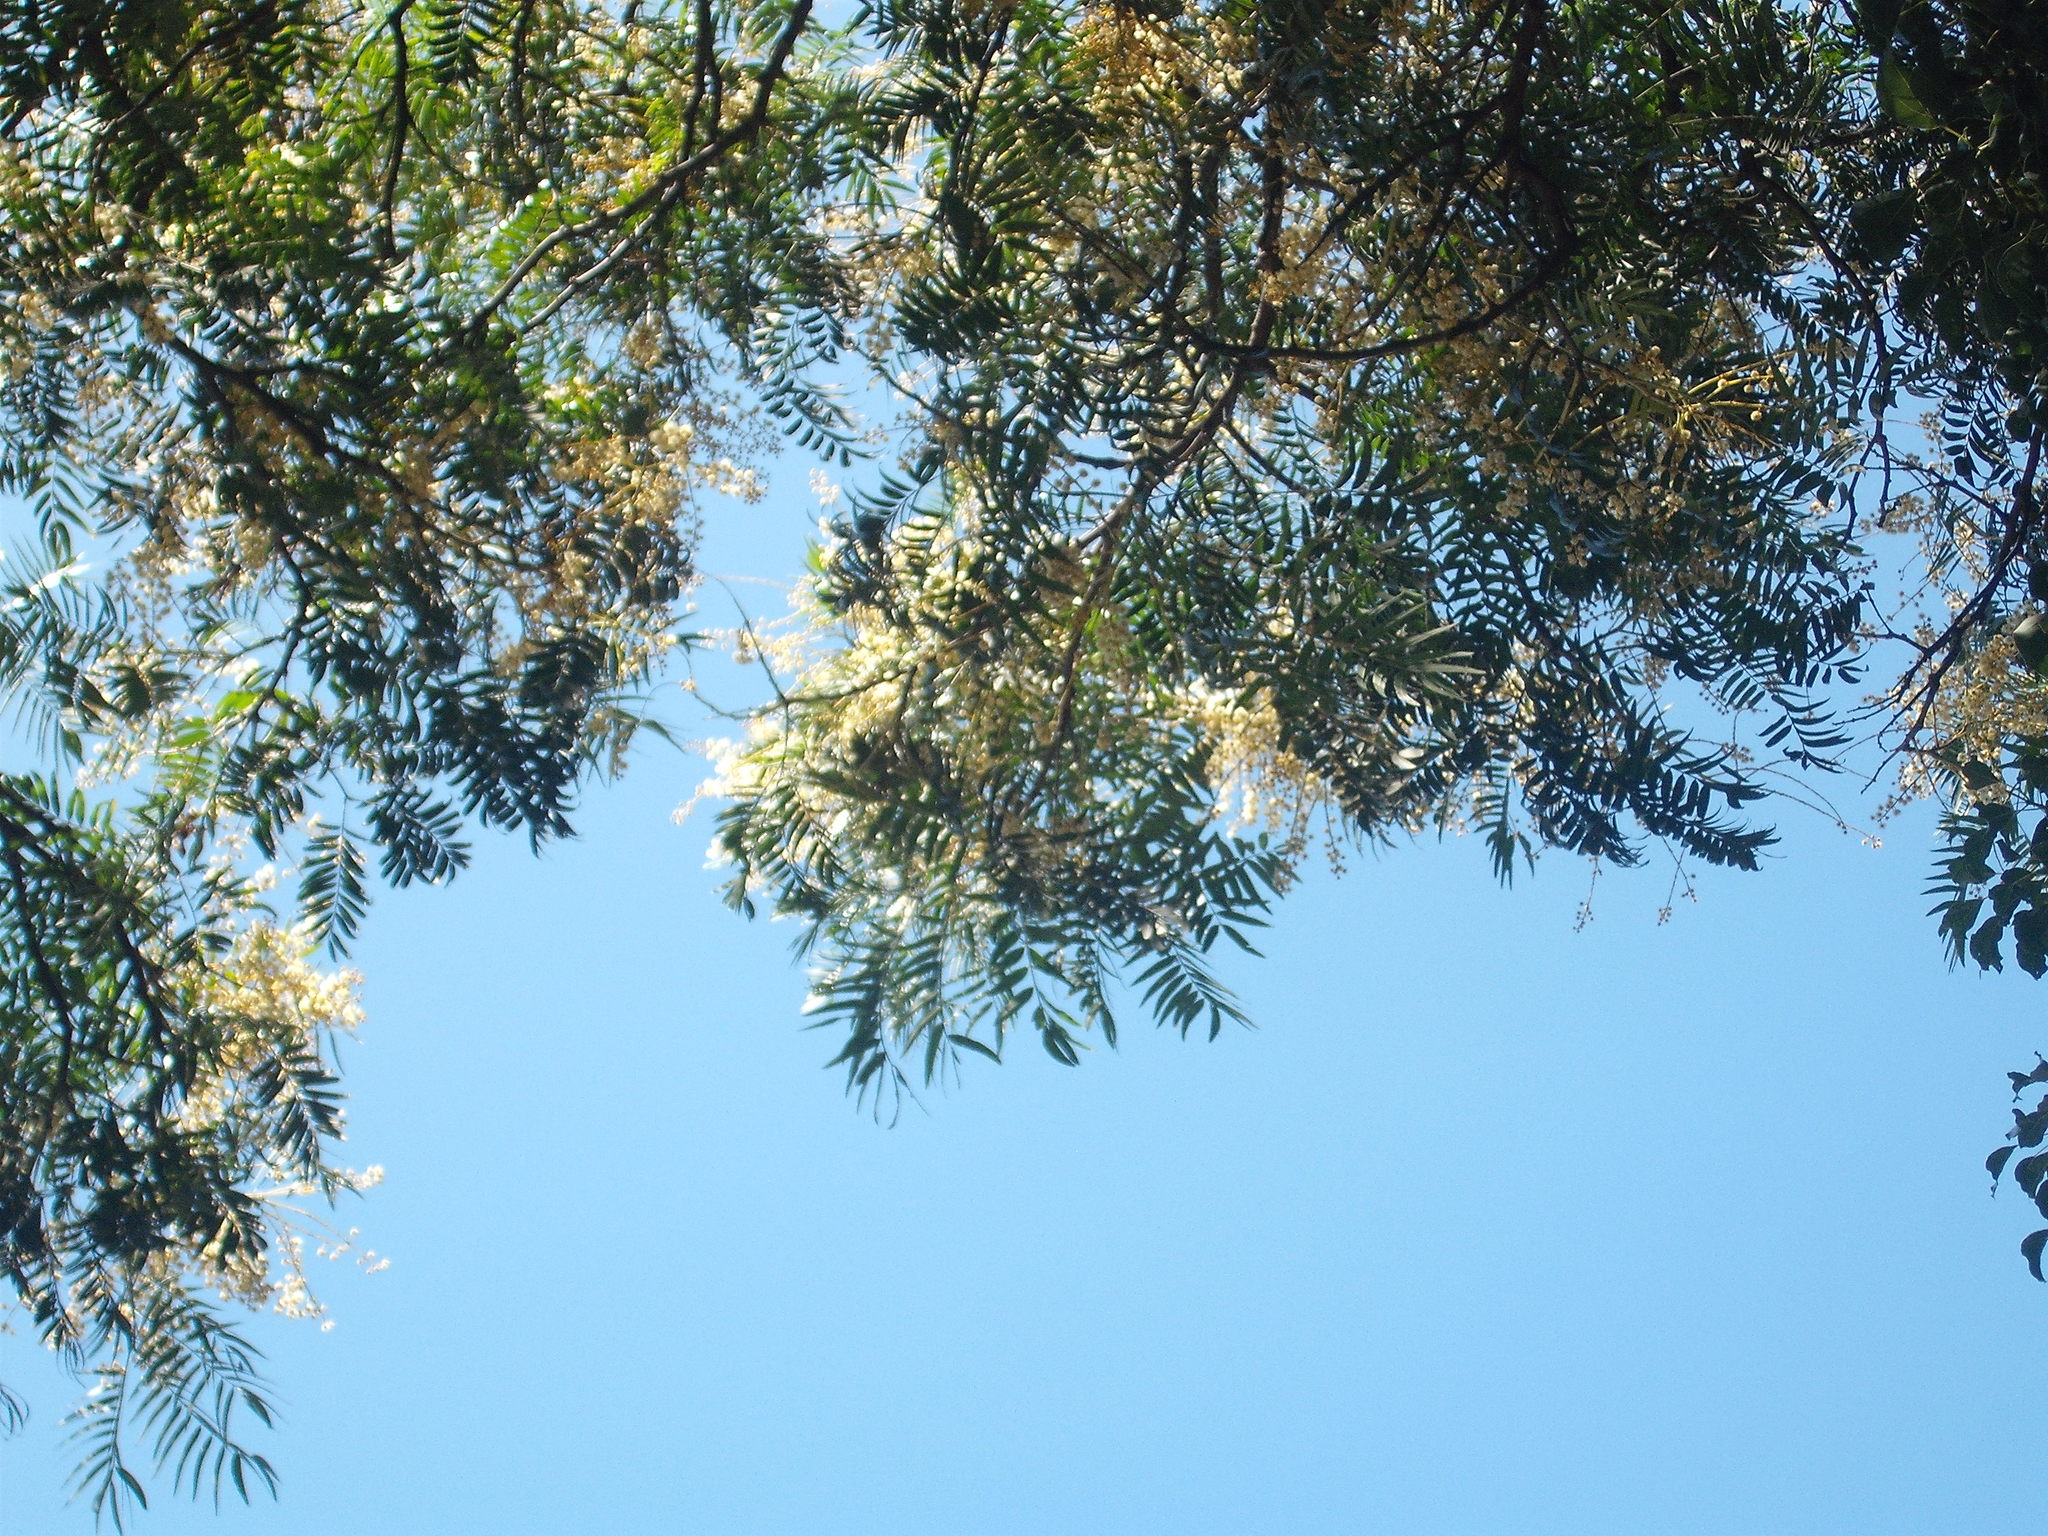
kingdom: Plantae
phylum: Tracheophyta
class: Magnoliopsida
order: Fabales
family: Fabaceae
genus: Acacia
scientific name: Acacia elata
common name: Cedar wattle
